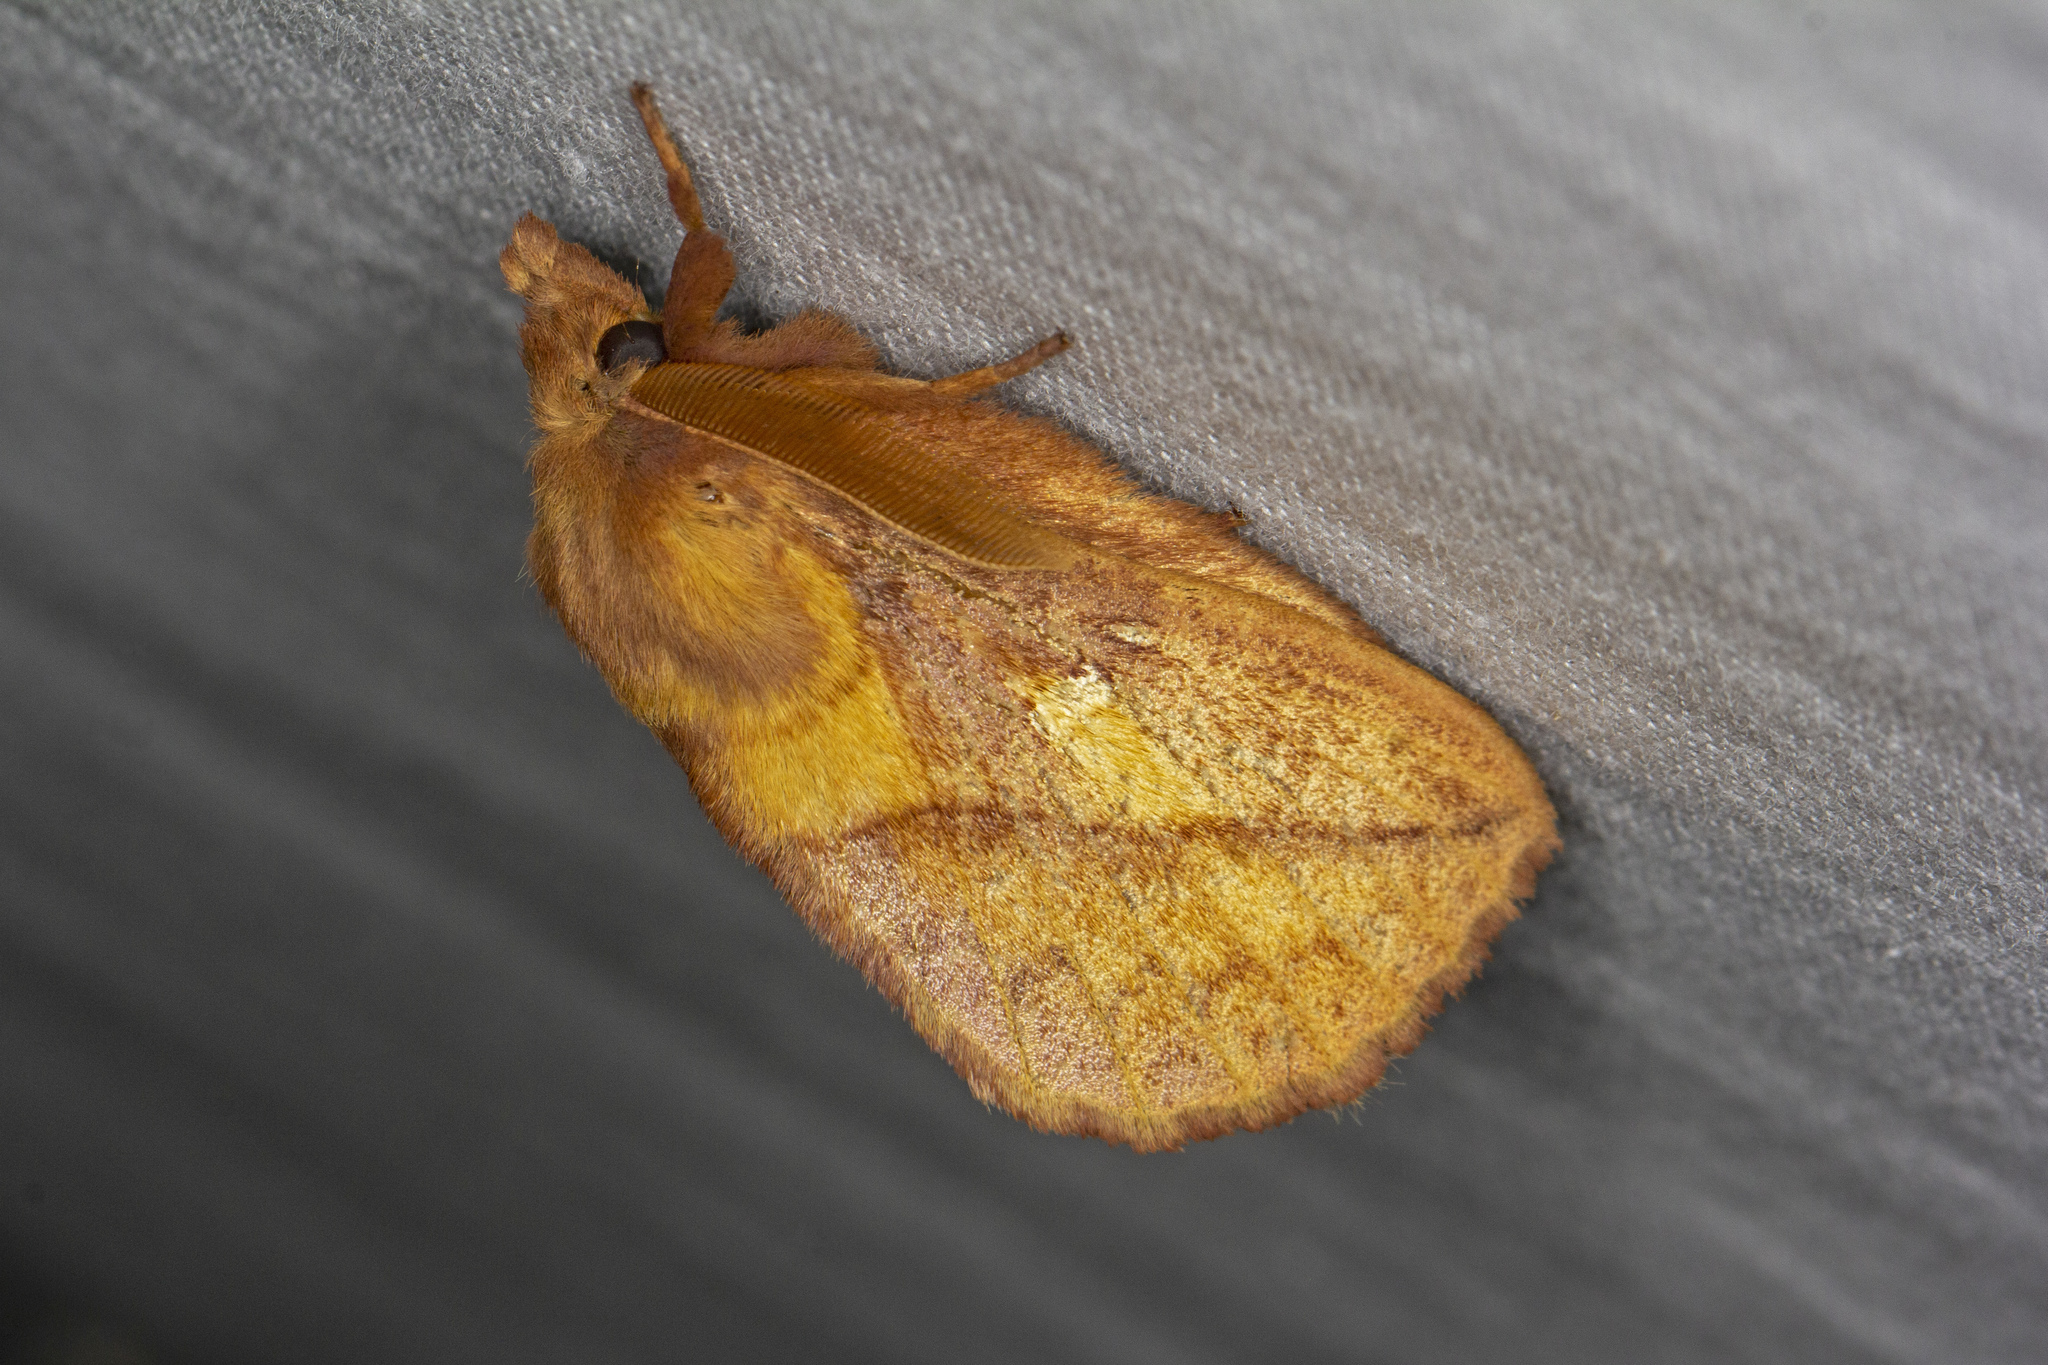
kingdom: Animalia
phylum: Arthropoda
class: Insecta
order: Lepidoptera
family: Lasiocampidae
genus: Euthrix
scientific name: Euthrix potatoria
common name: Drinker
